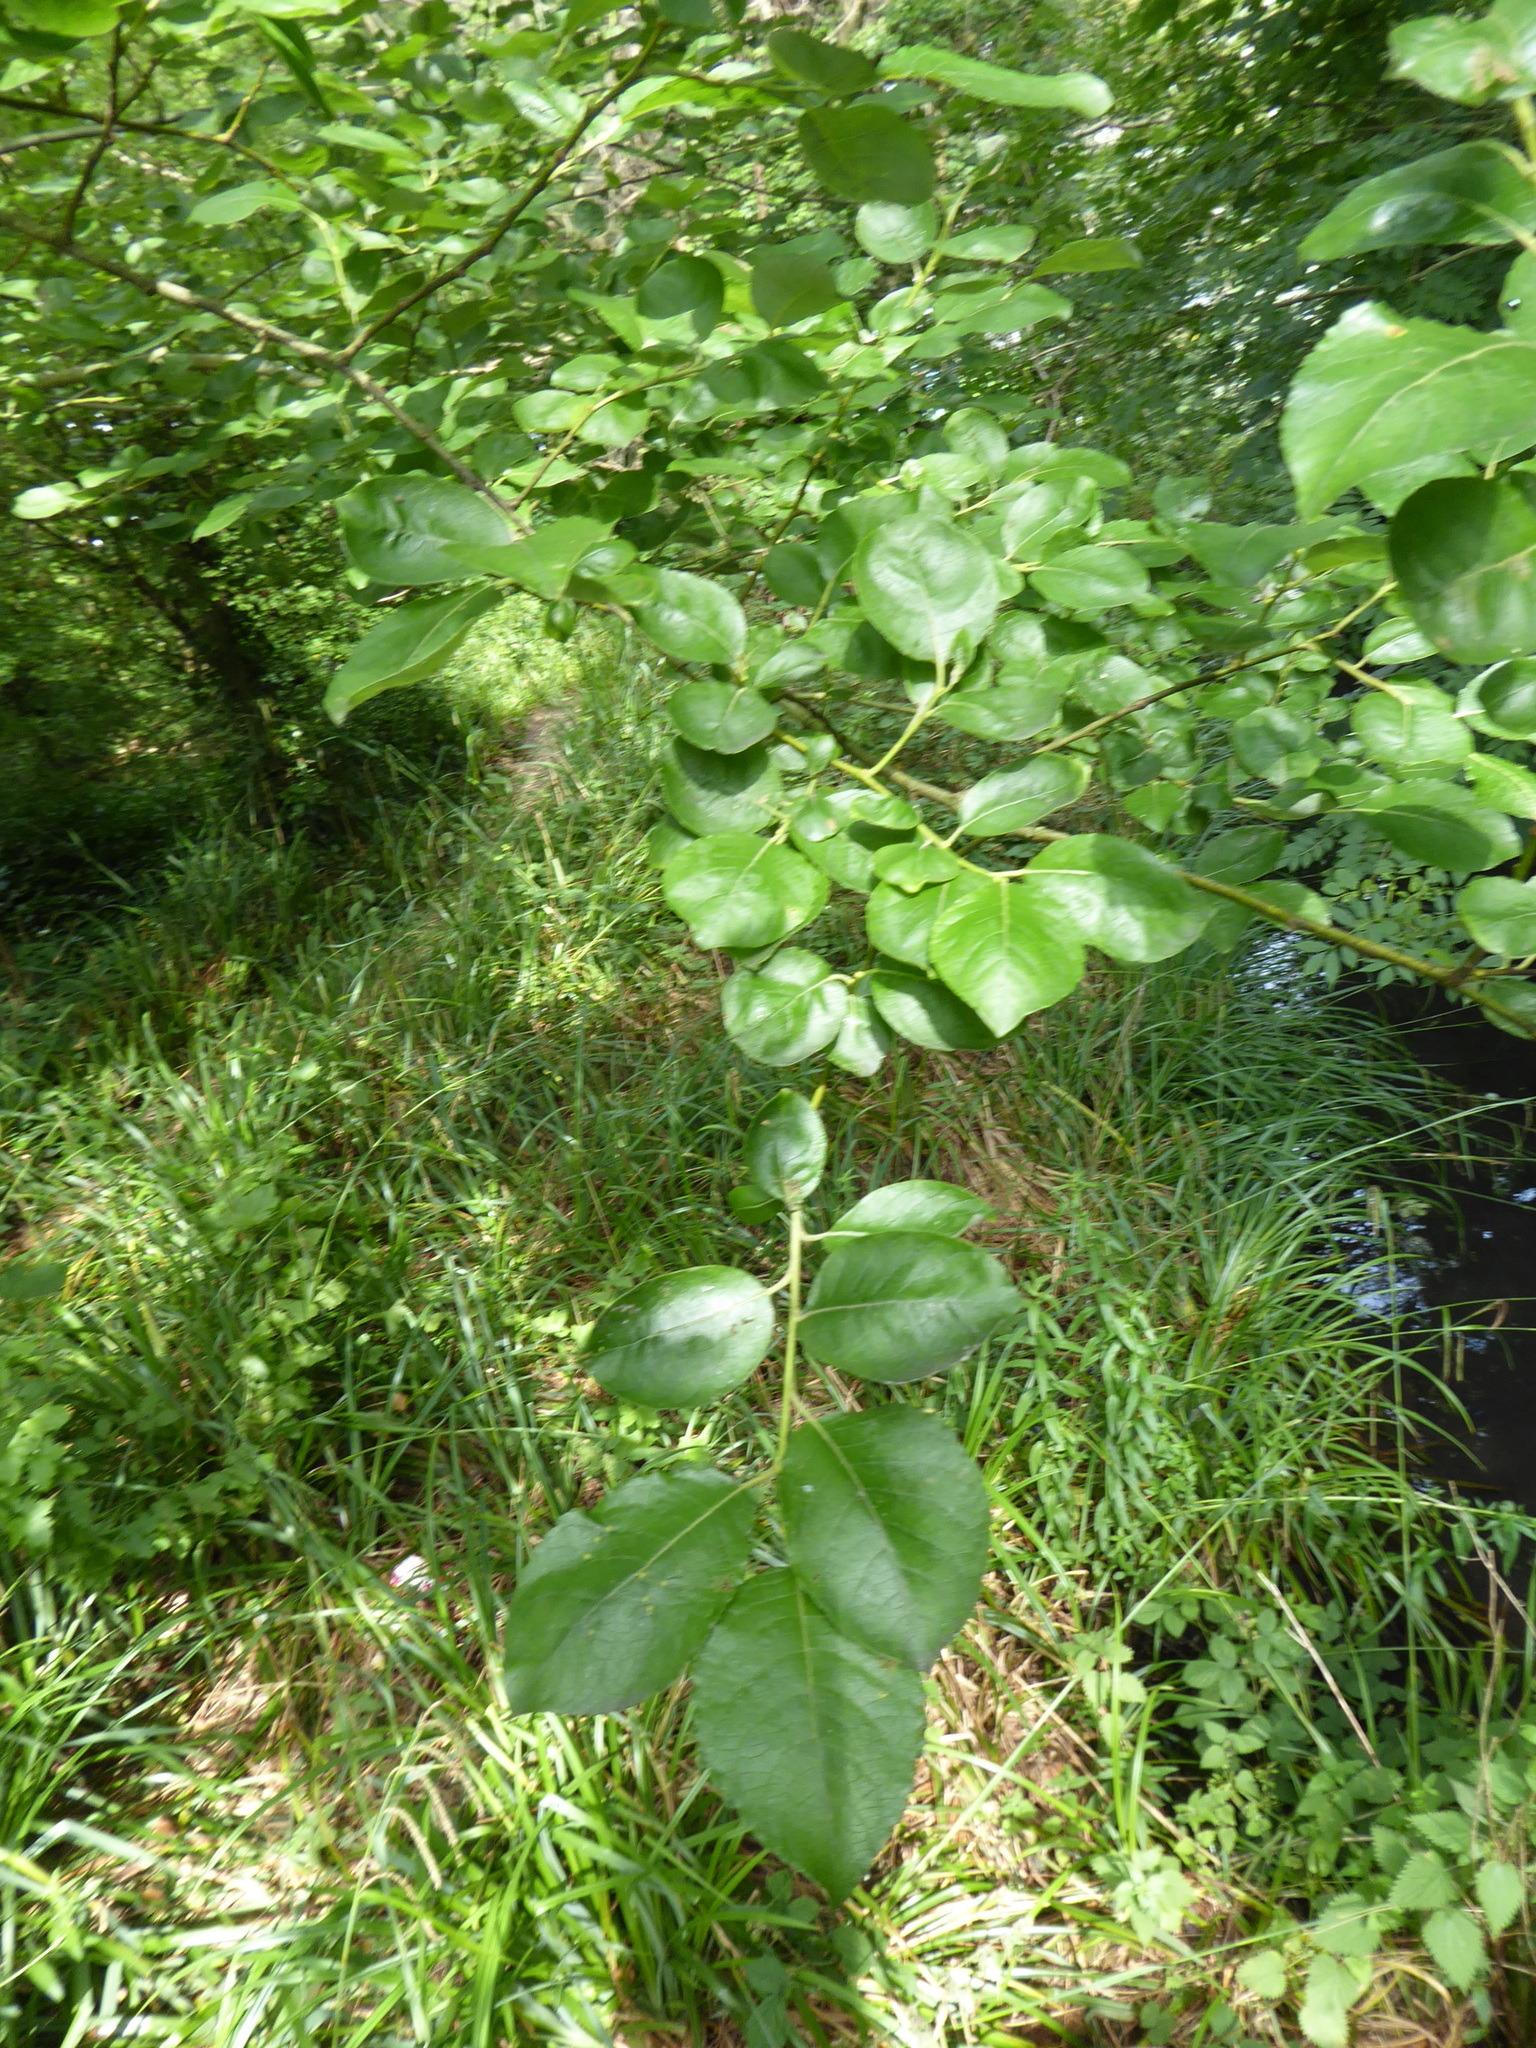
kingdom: Plantae
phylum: Tracheophyta
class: Magnoliopsida
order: Malpighiales
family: Salicaceae
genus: Salix
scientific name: Salix caprea
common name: Goat willow
